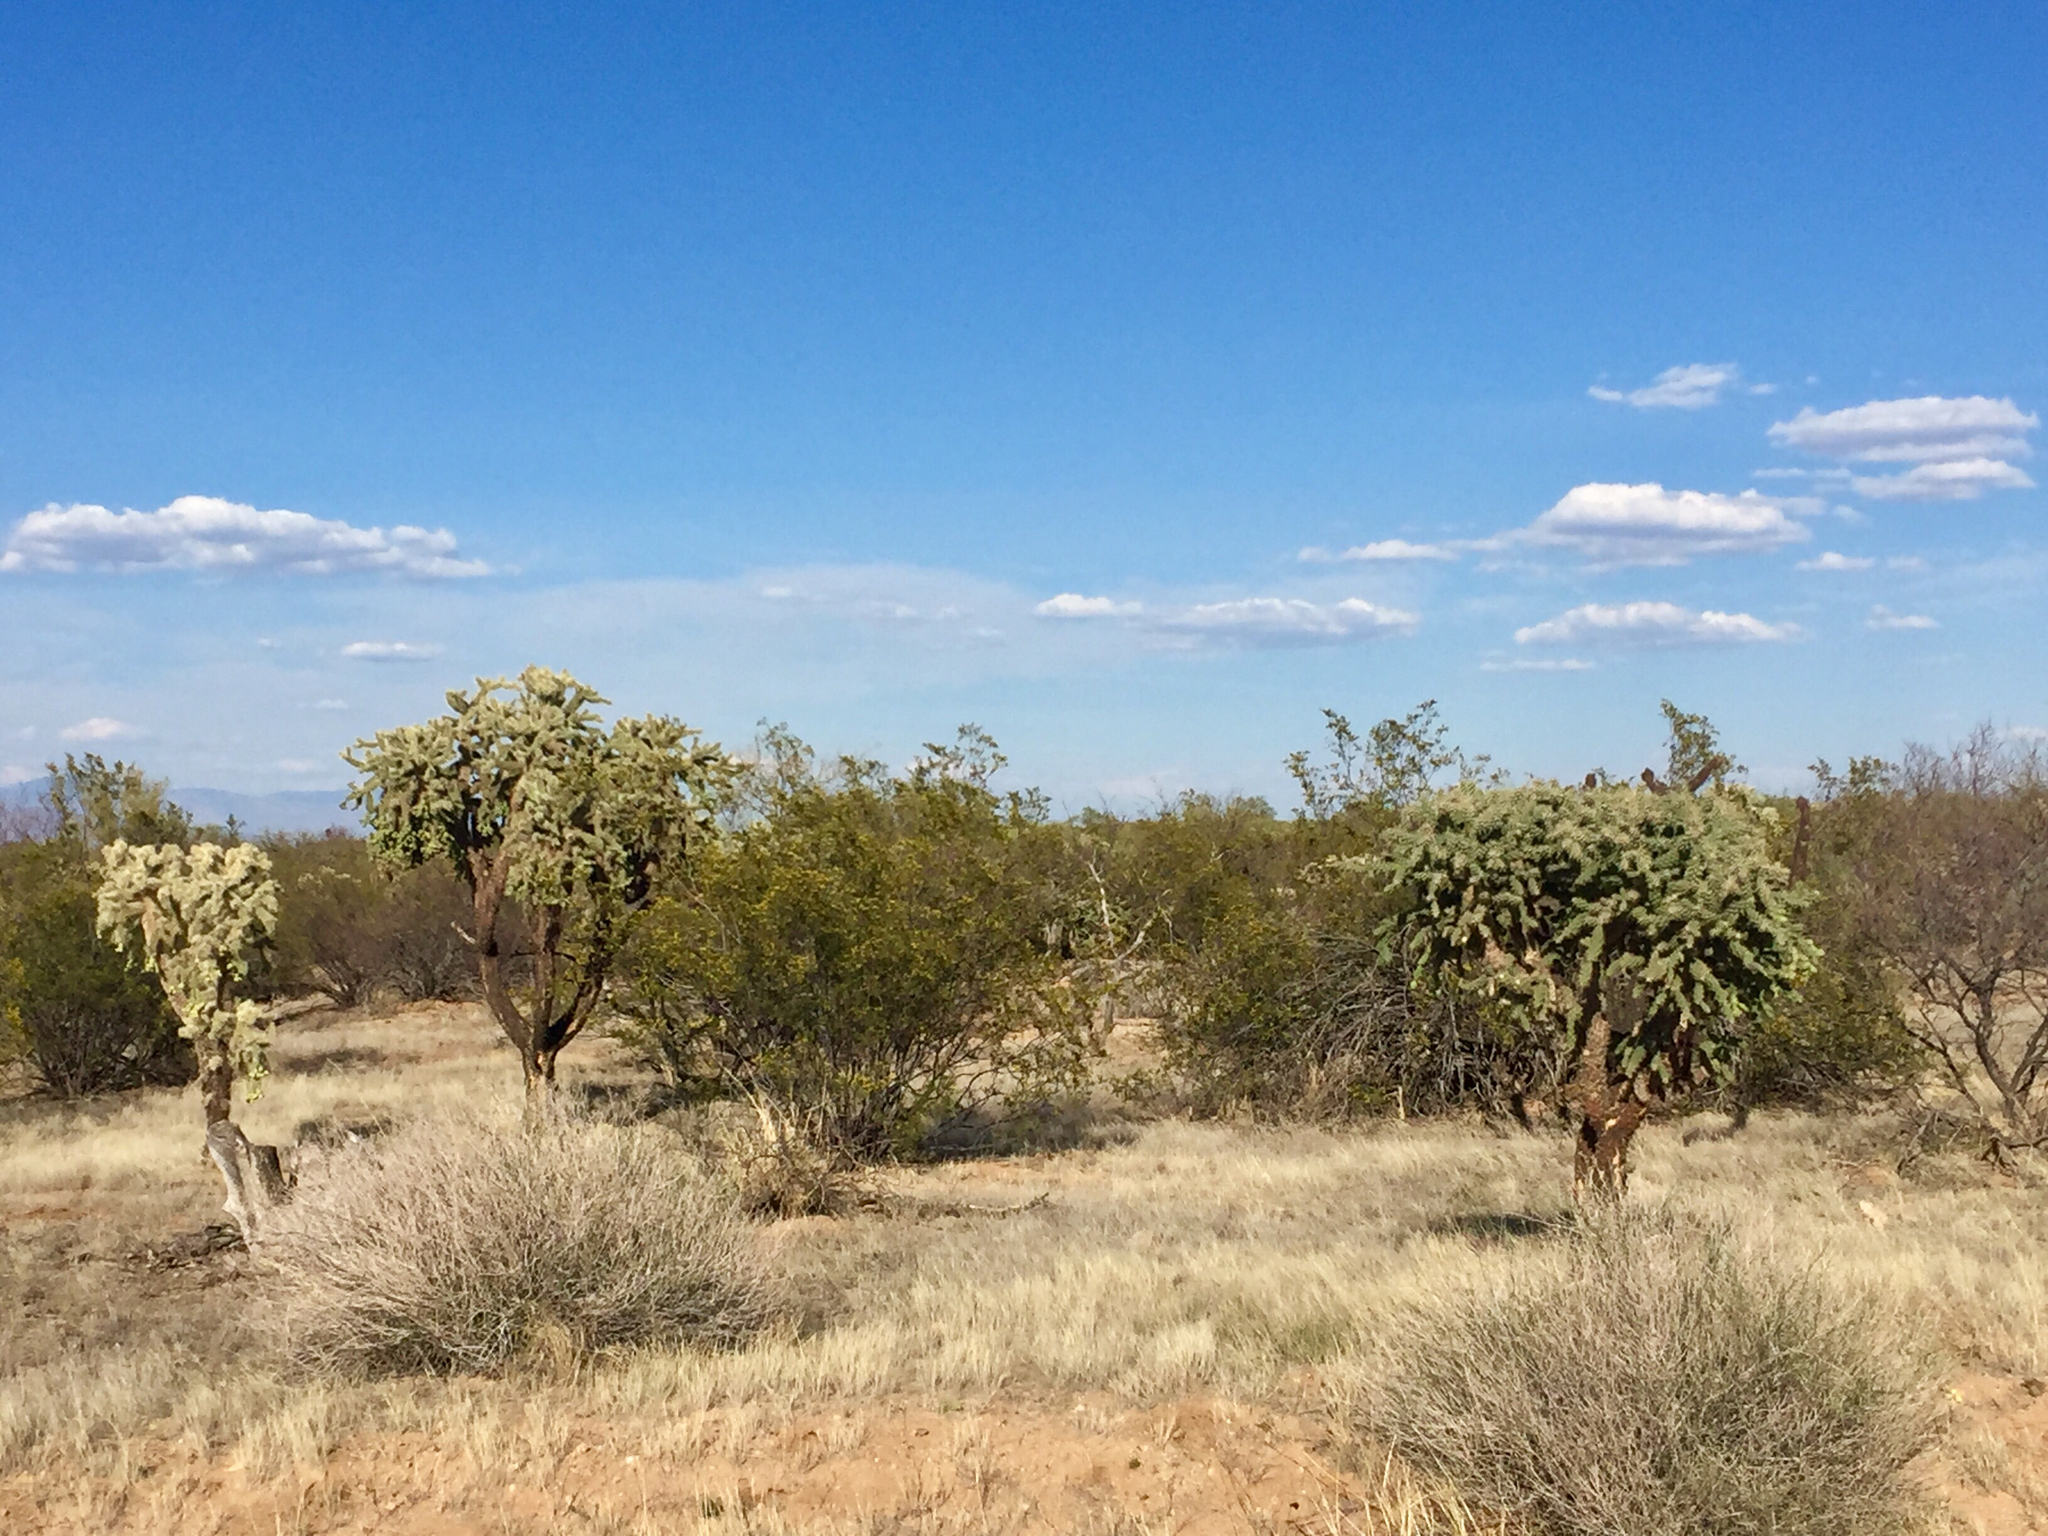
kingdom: Plantae
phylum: Tracheophyta
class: Magnoliopsida
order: Caryophyllales
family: Cactaceae
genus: Cylindropuntia
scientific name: Cylindropuntia fulgida
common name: Jumping cholla
